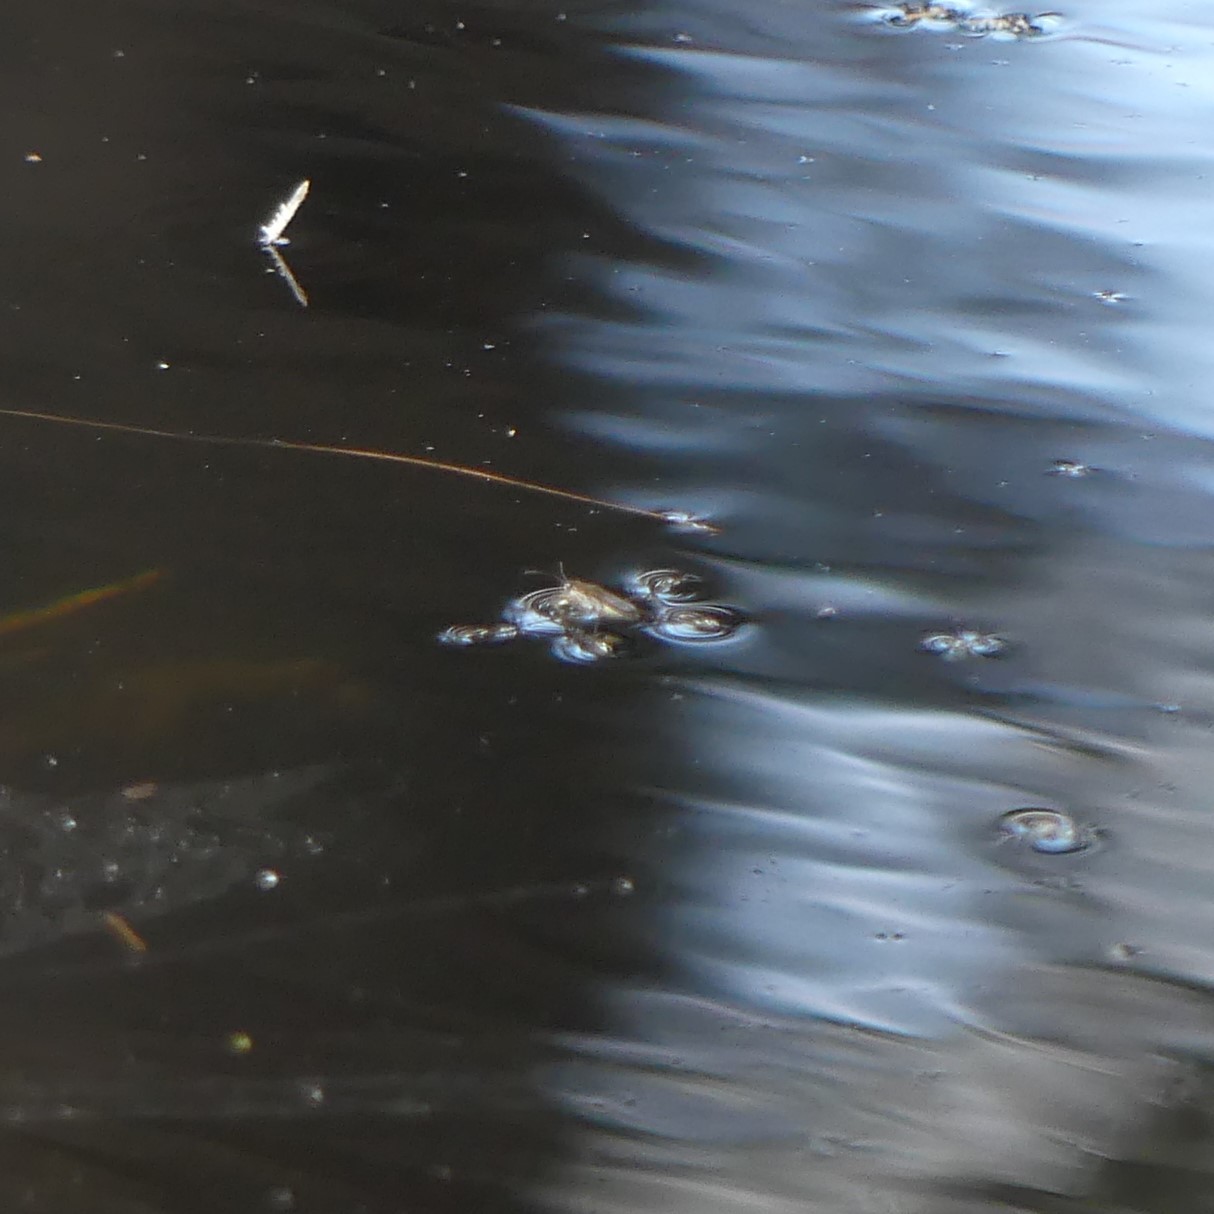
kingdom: Animalia
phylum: Arthropoda
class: Insecta
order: Hemiptera
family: Gerridae
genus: Gerris
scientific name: Gerris
